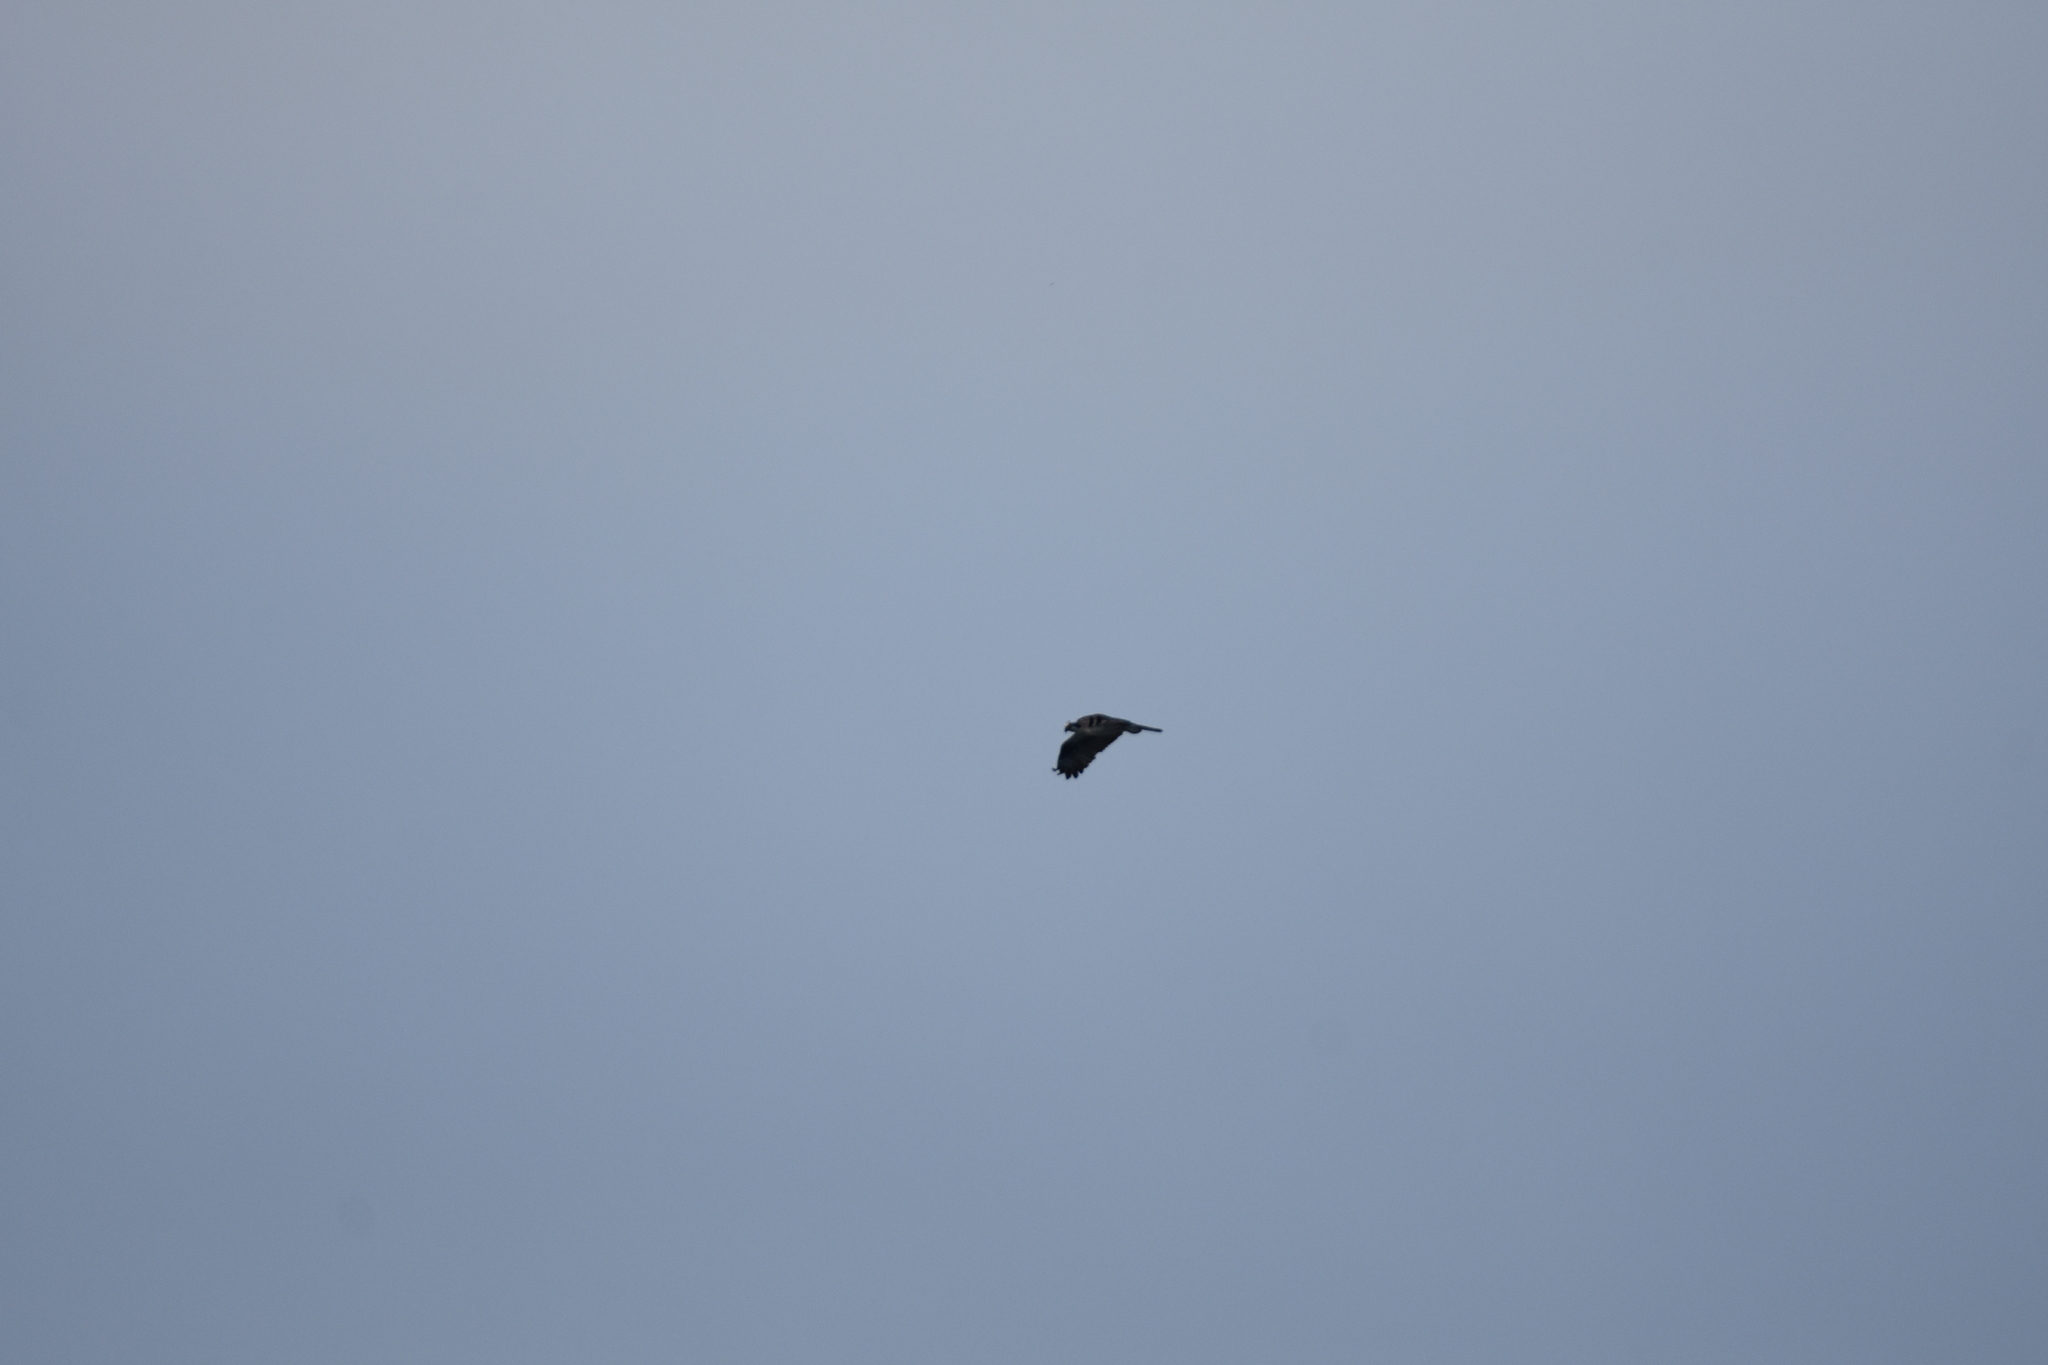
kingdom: Animalia
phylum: Chordata
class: Aves
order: Accipitriformes
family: Pandionidae
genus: Pandion
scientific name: Pandion haliaetus
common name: Osprey
